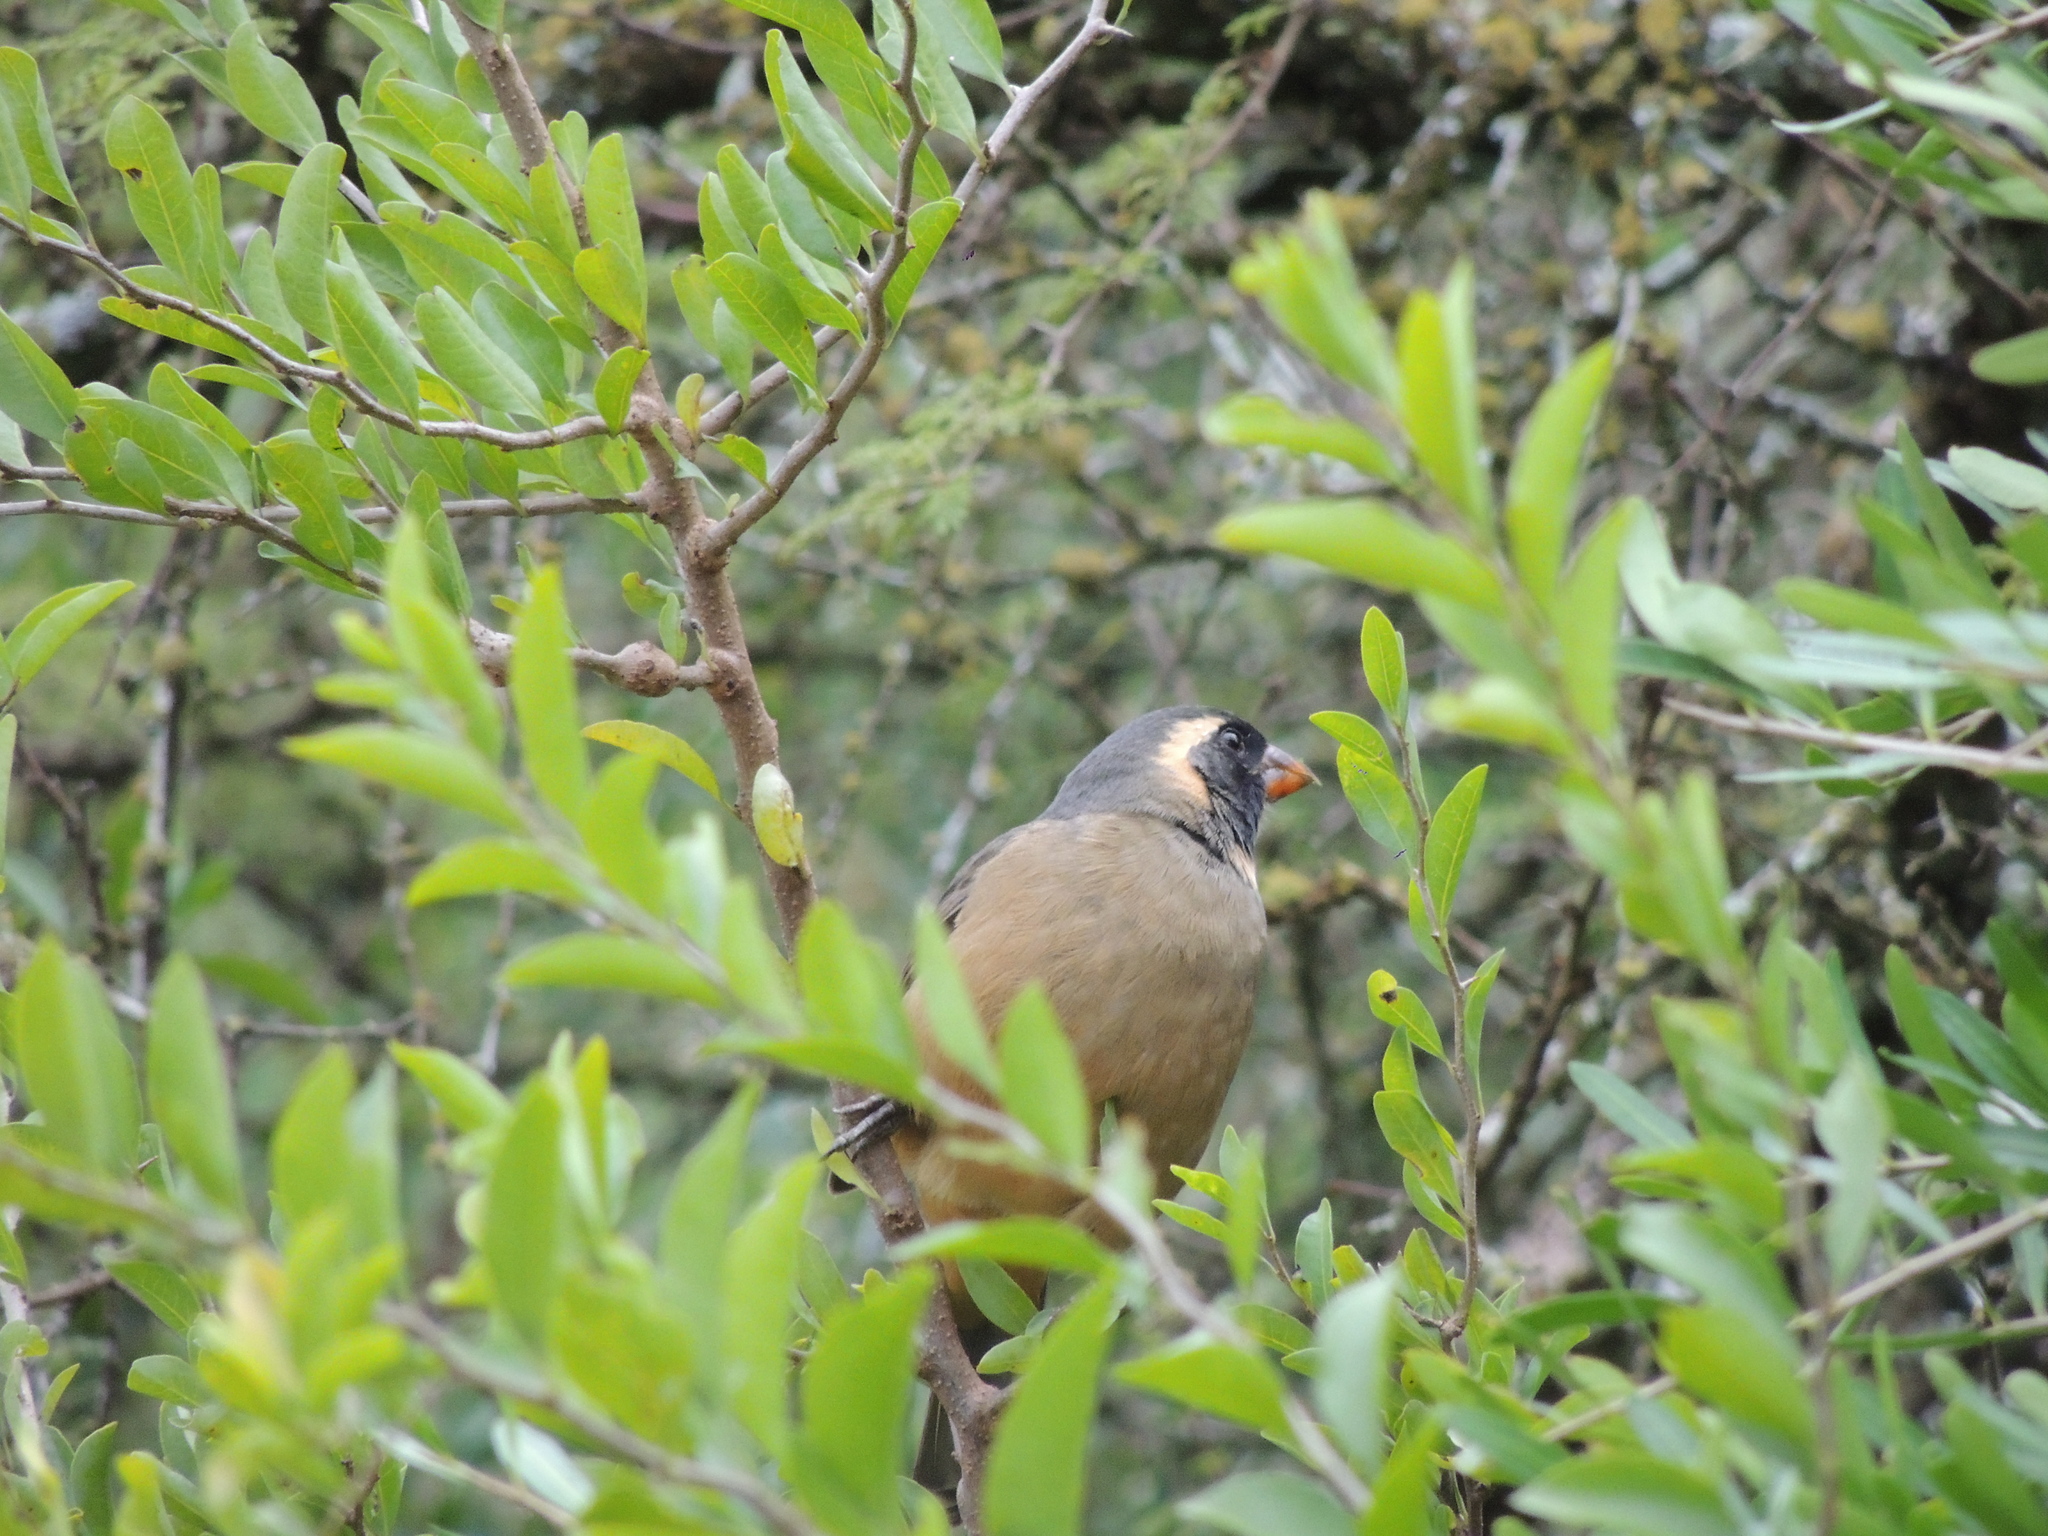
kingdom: Animalia
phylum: Chordata
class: Aves
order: Passeriformes
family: Thraupidae
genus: Saltator
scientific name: Saltator aurantiirostris
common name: Golden-billed saltator
